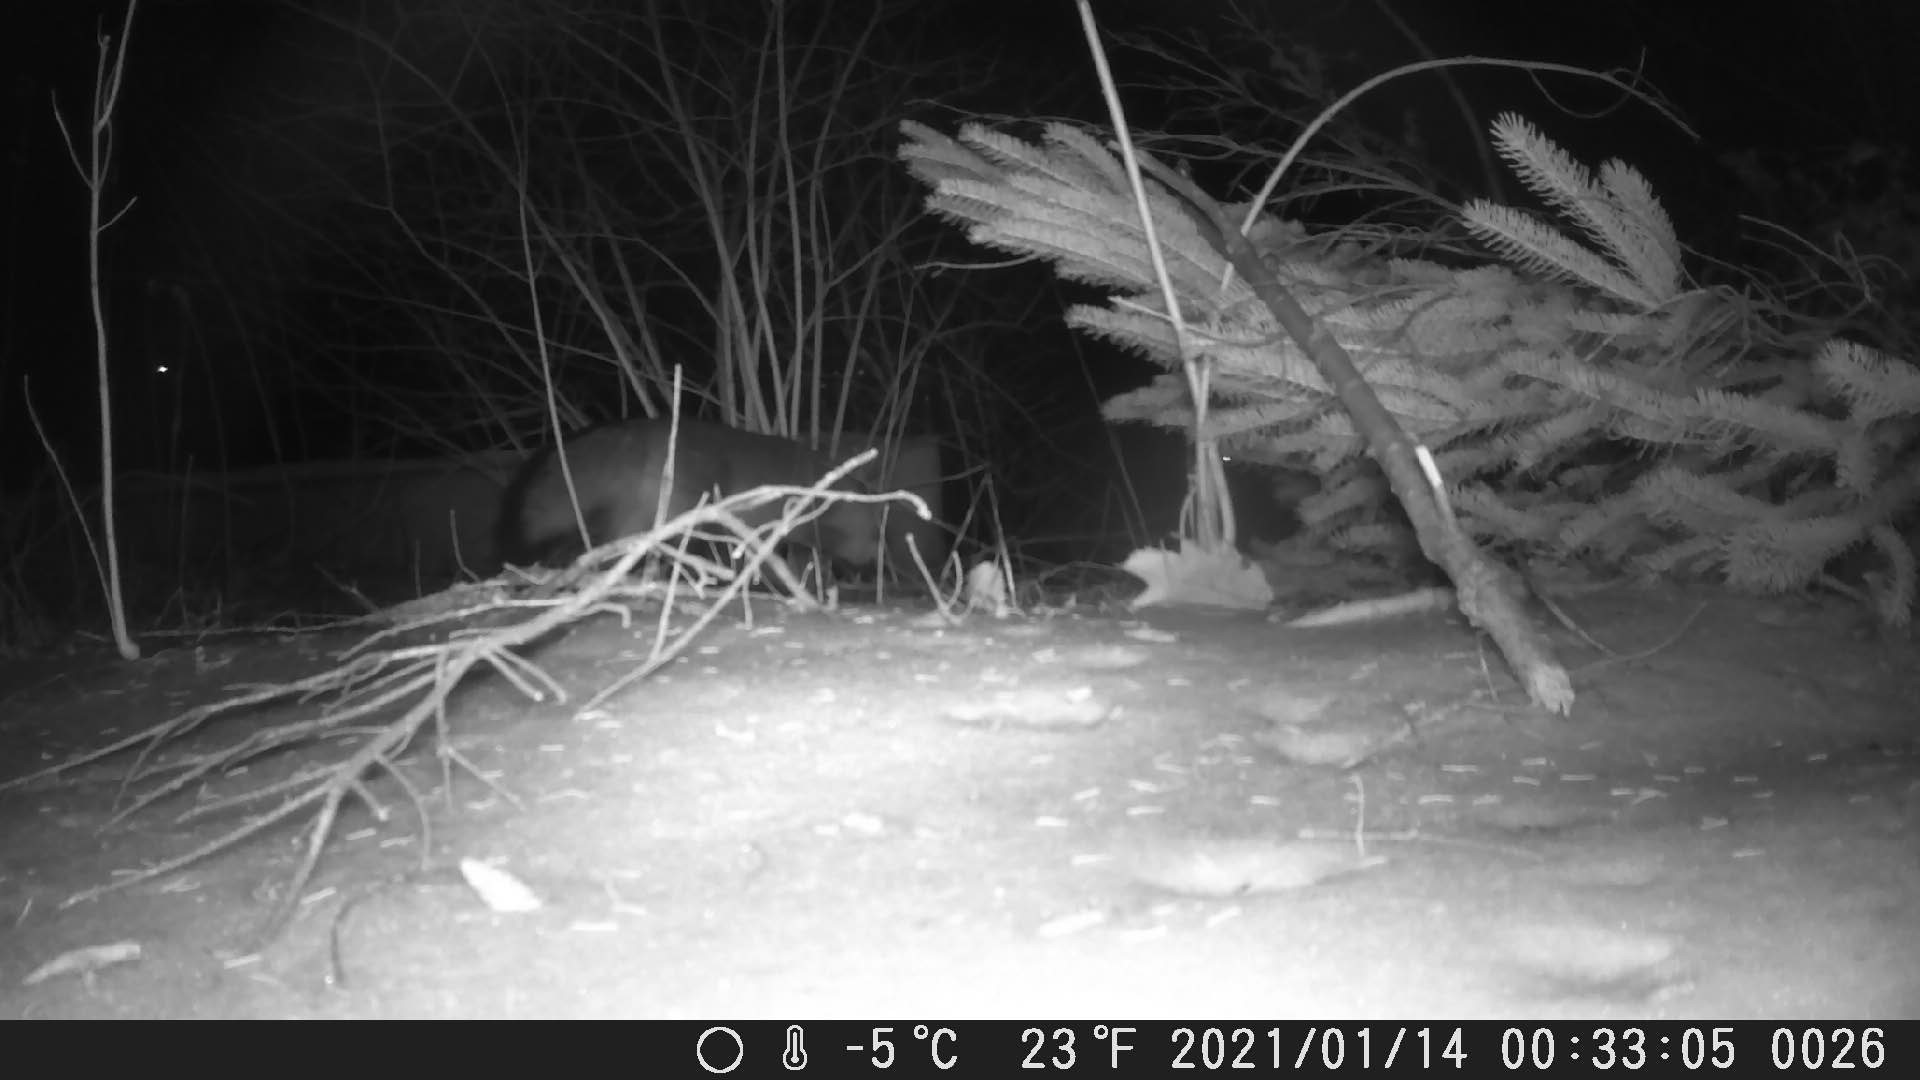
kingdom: Animalia
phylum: Chordata
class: Mammalia
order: Carnivora
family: Canidae
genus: Urocyon
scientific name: Urocyon cinereoargenteus
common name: Gray fox
